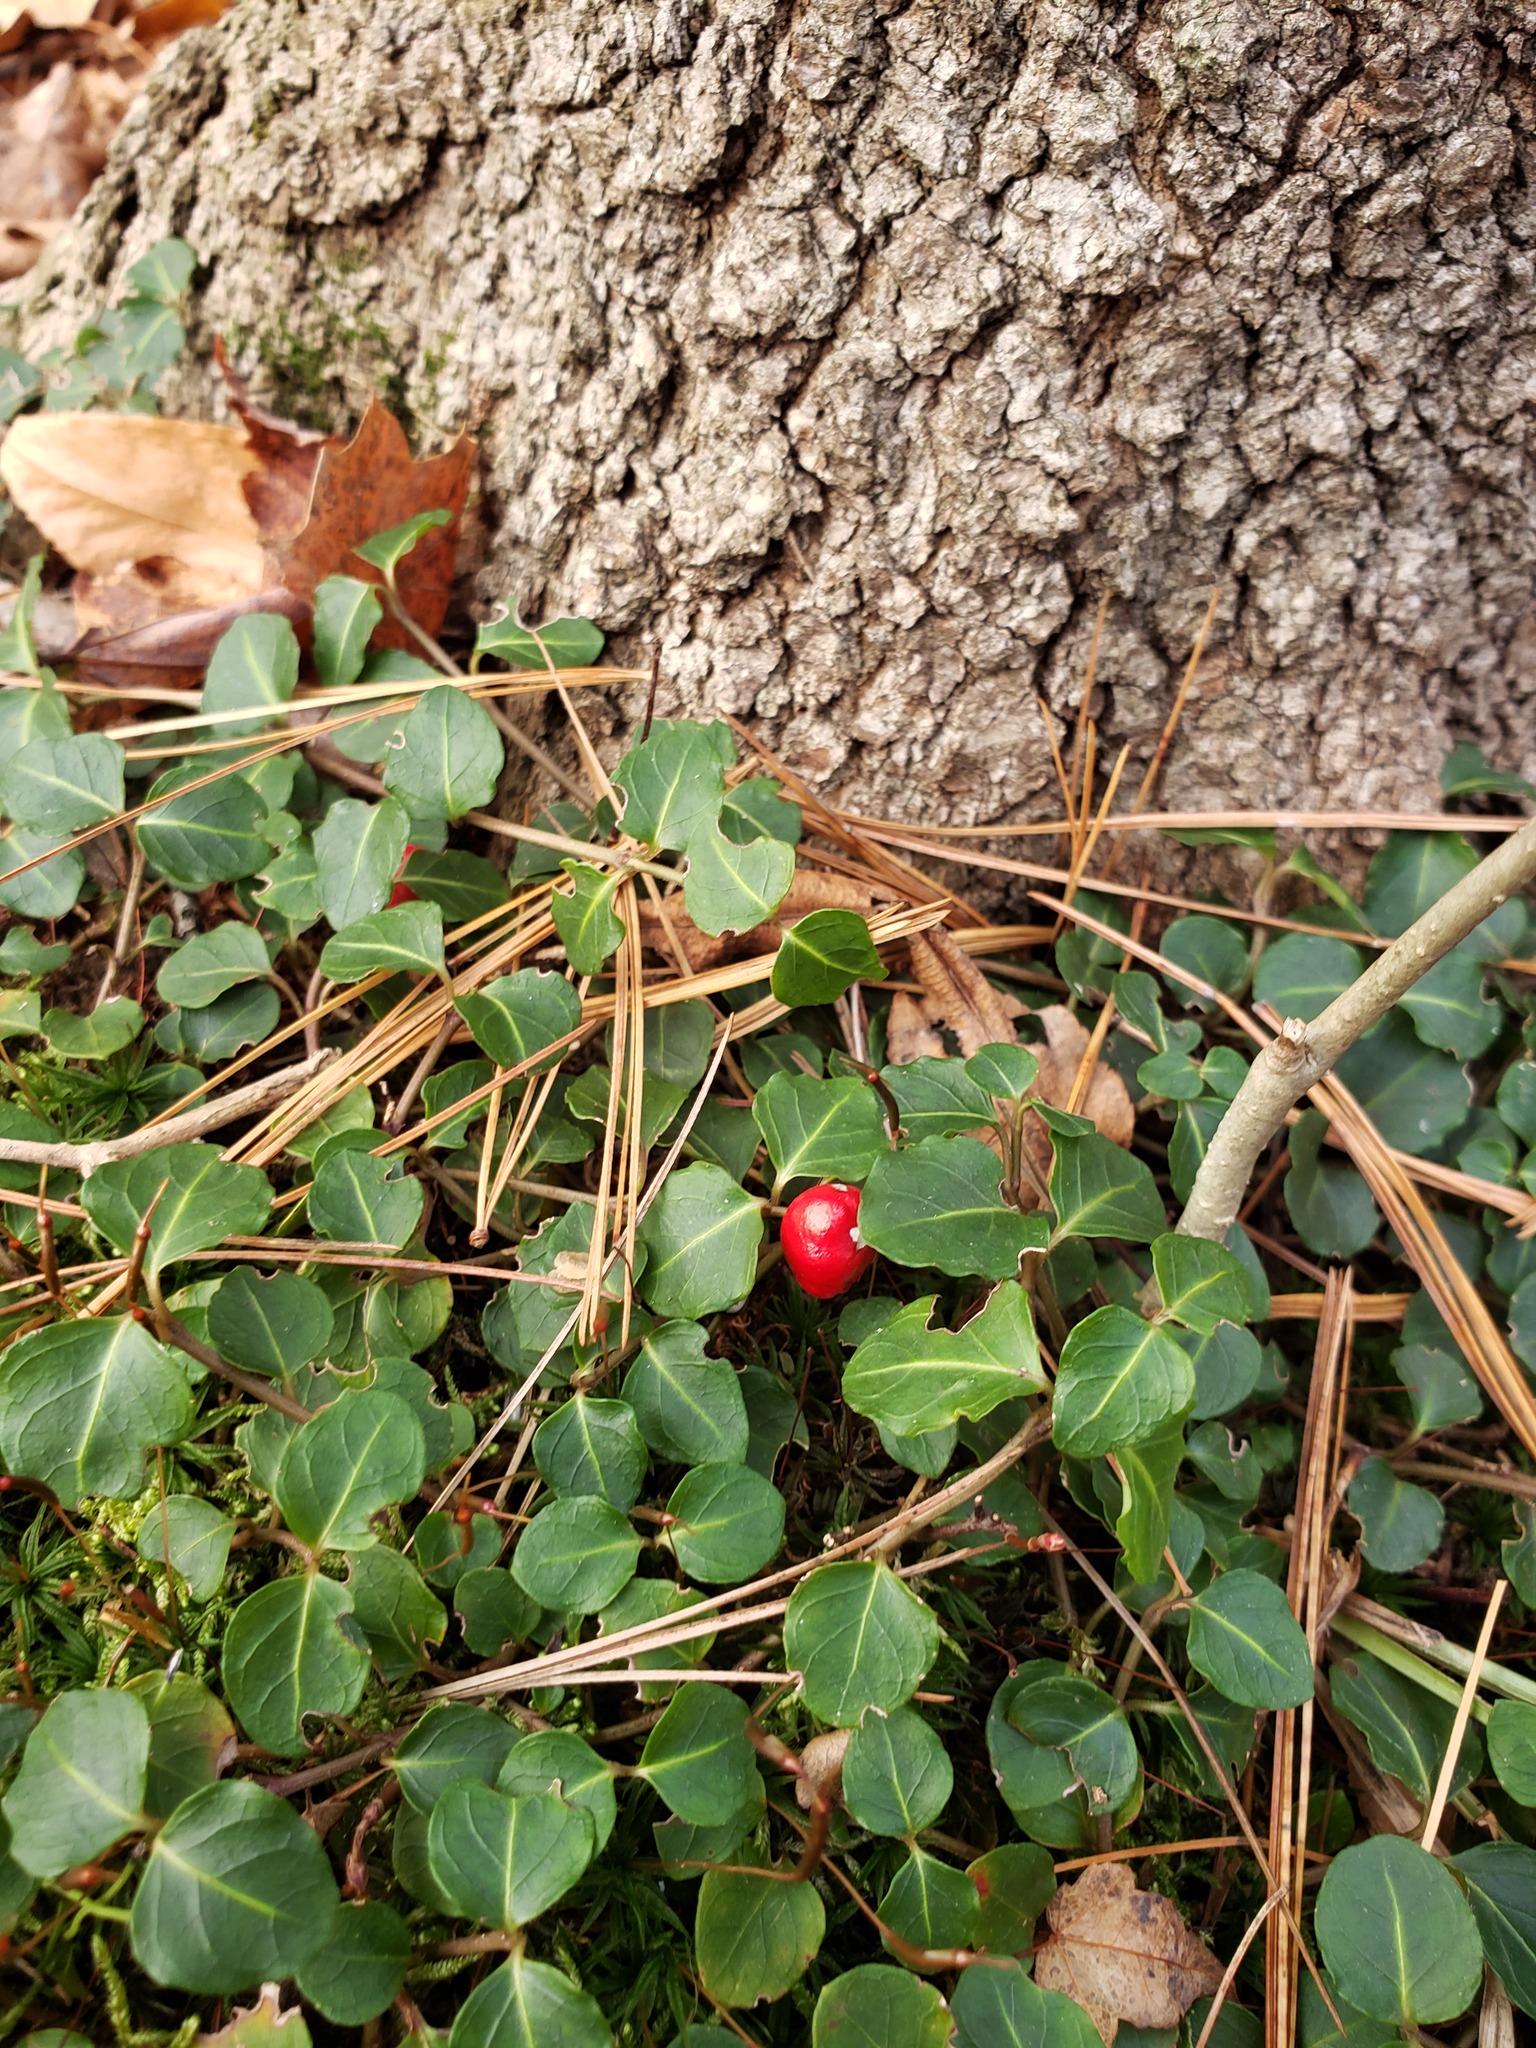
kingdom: Plantae
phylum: Tracheophyta
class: Magnoliopsida
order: Gentianales
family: Rubiaceae
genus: Mitchella
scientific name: Mitchella repens
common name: Partridge-berry
